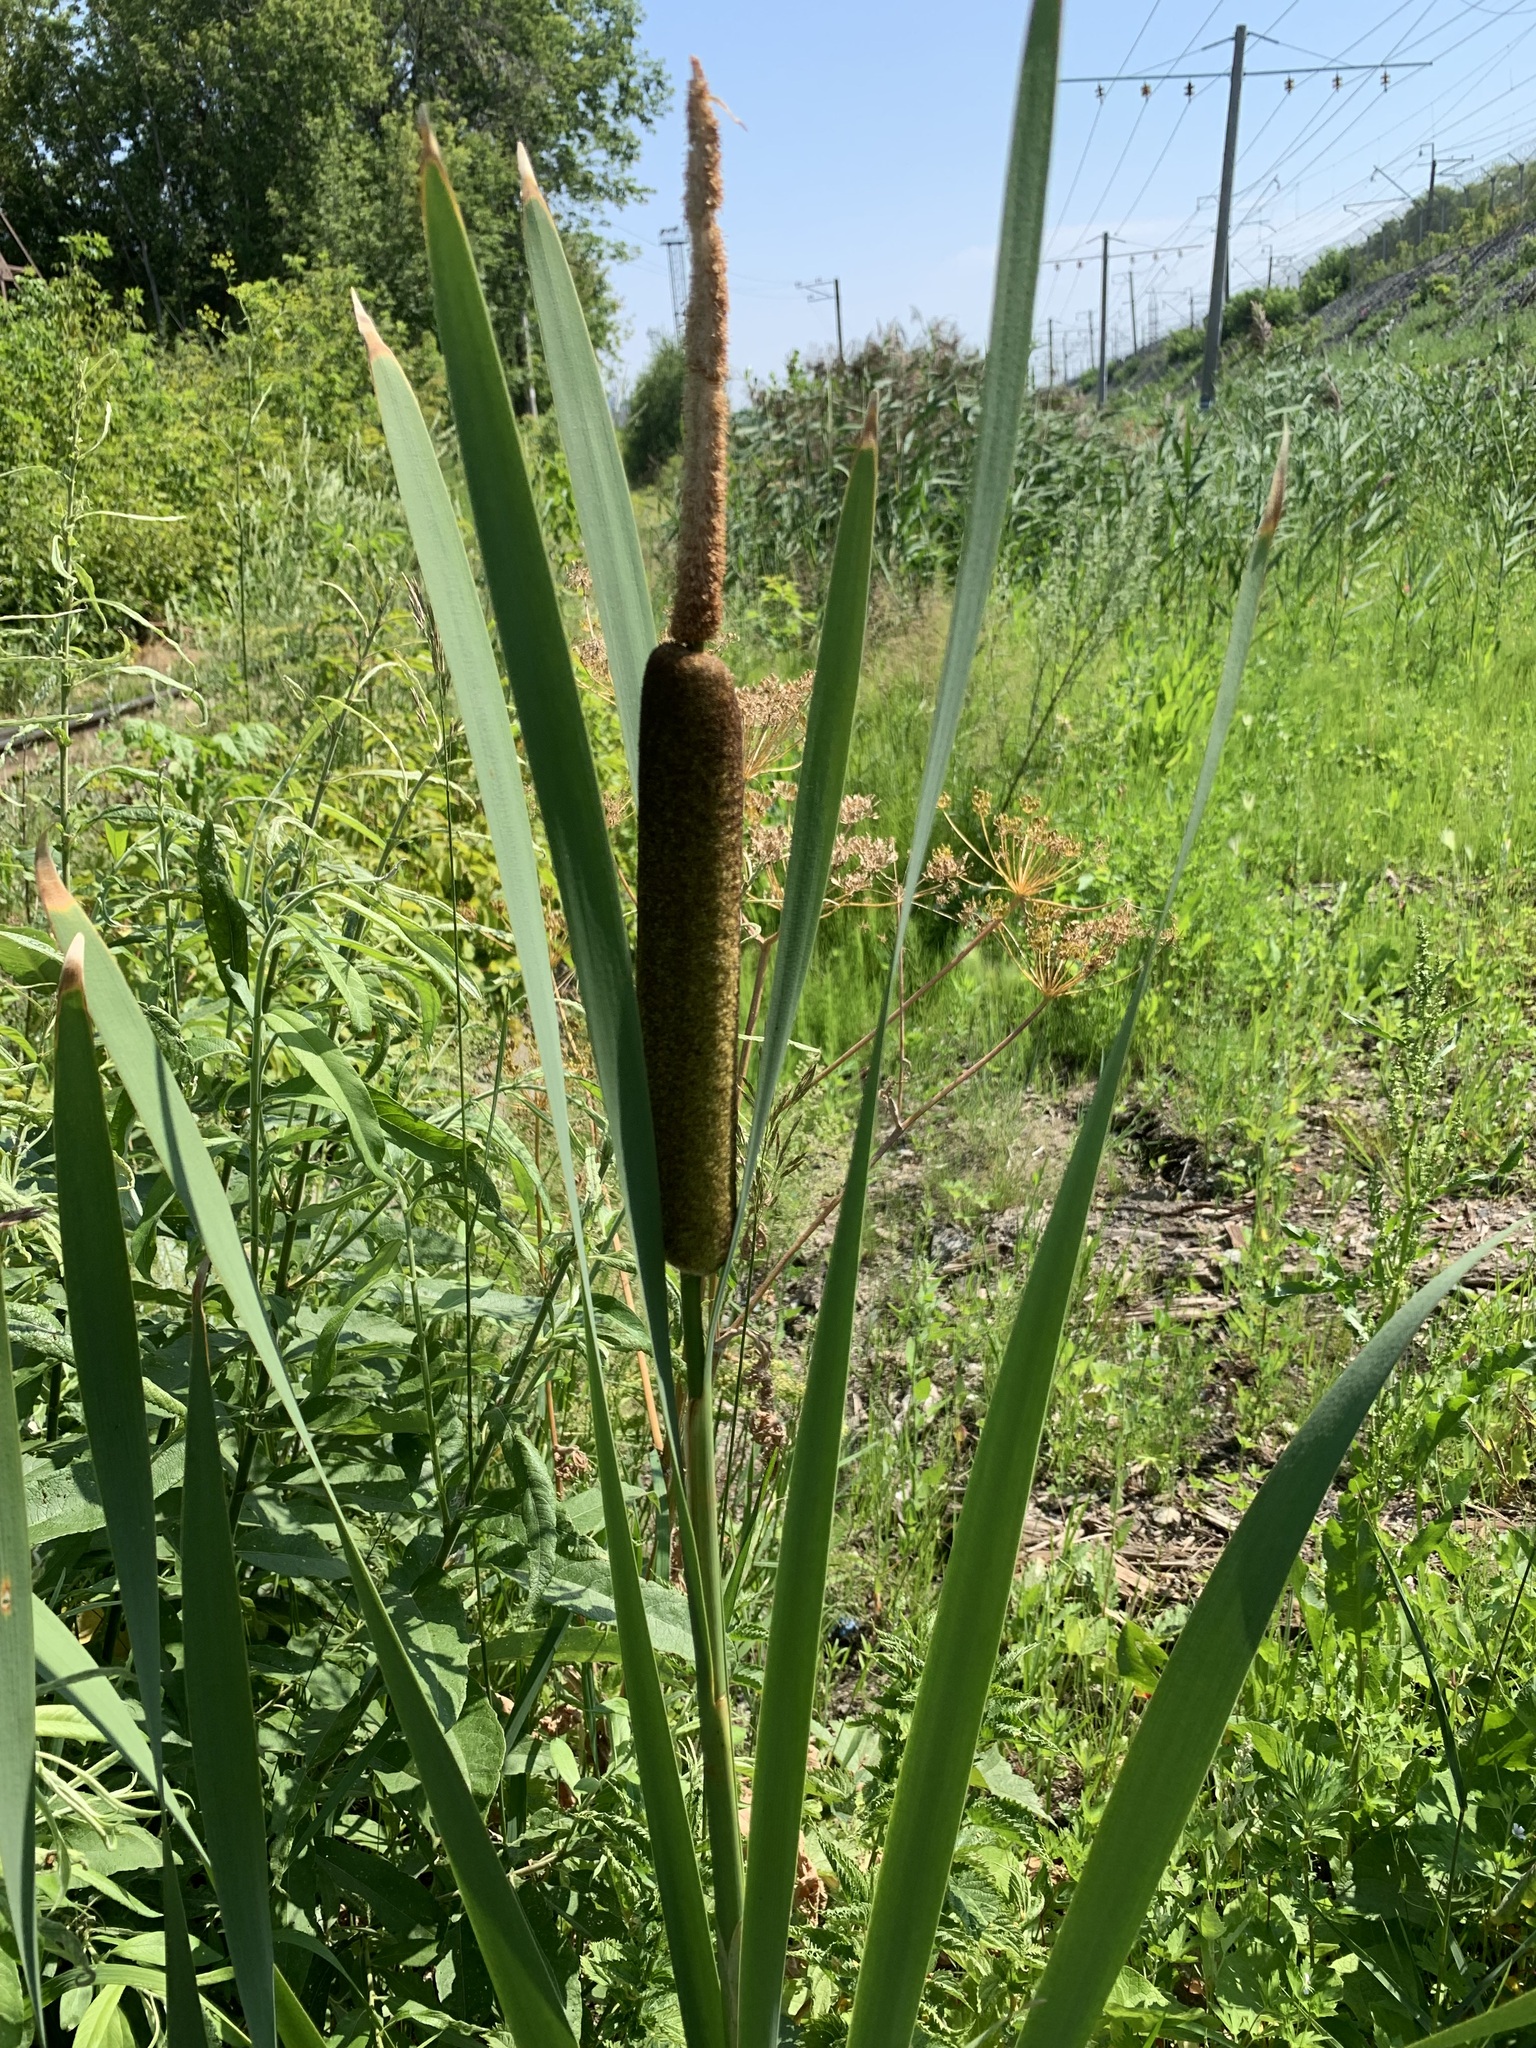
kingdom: Plantae
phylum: Tracheophyta
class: Liliopsida
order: Poales
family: Typhaceae
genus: Typha
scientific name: Typha latifolia
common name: Broadleaf cattail
